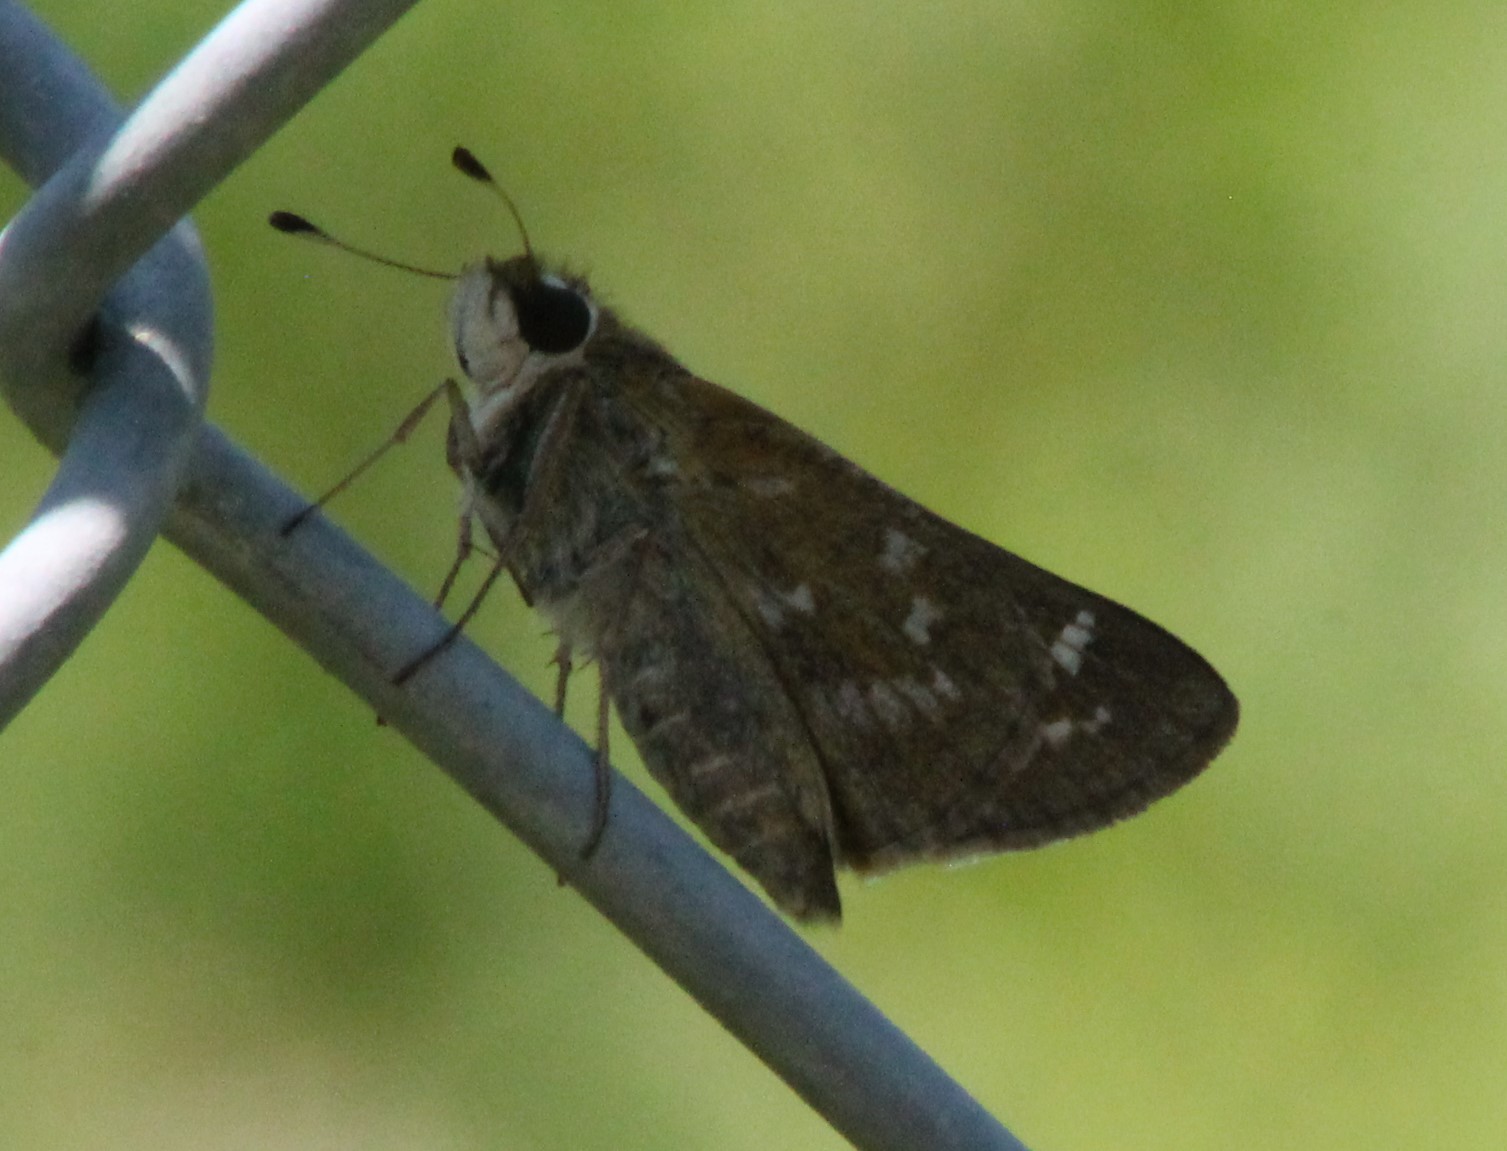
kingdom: Animalia
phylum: Arthropoda
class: Insecta
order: Lepidoptera
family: Hesperiidae
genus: Atalopedes
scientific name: Atalopedes
